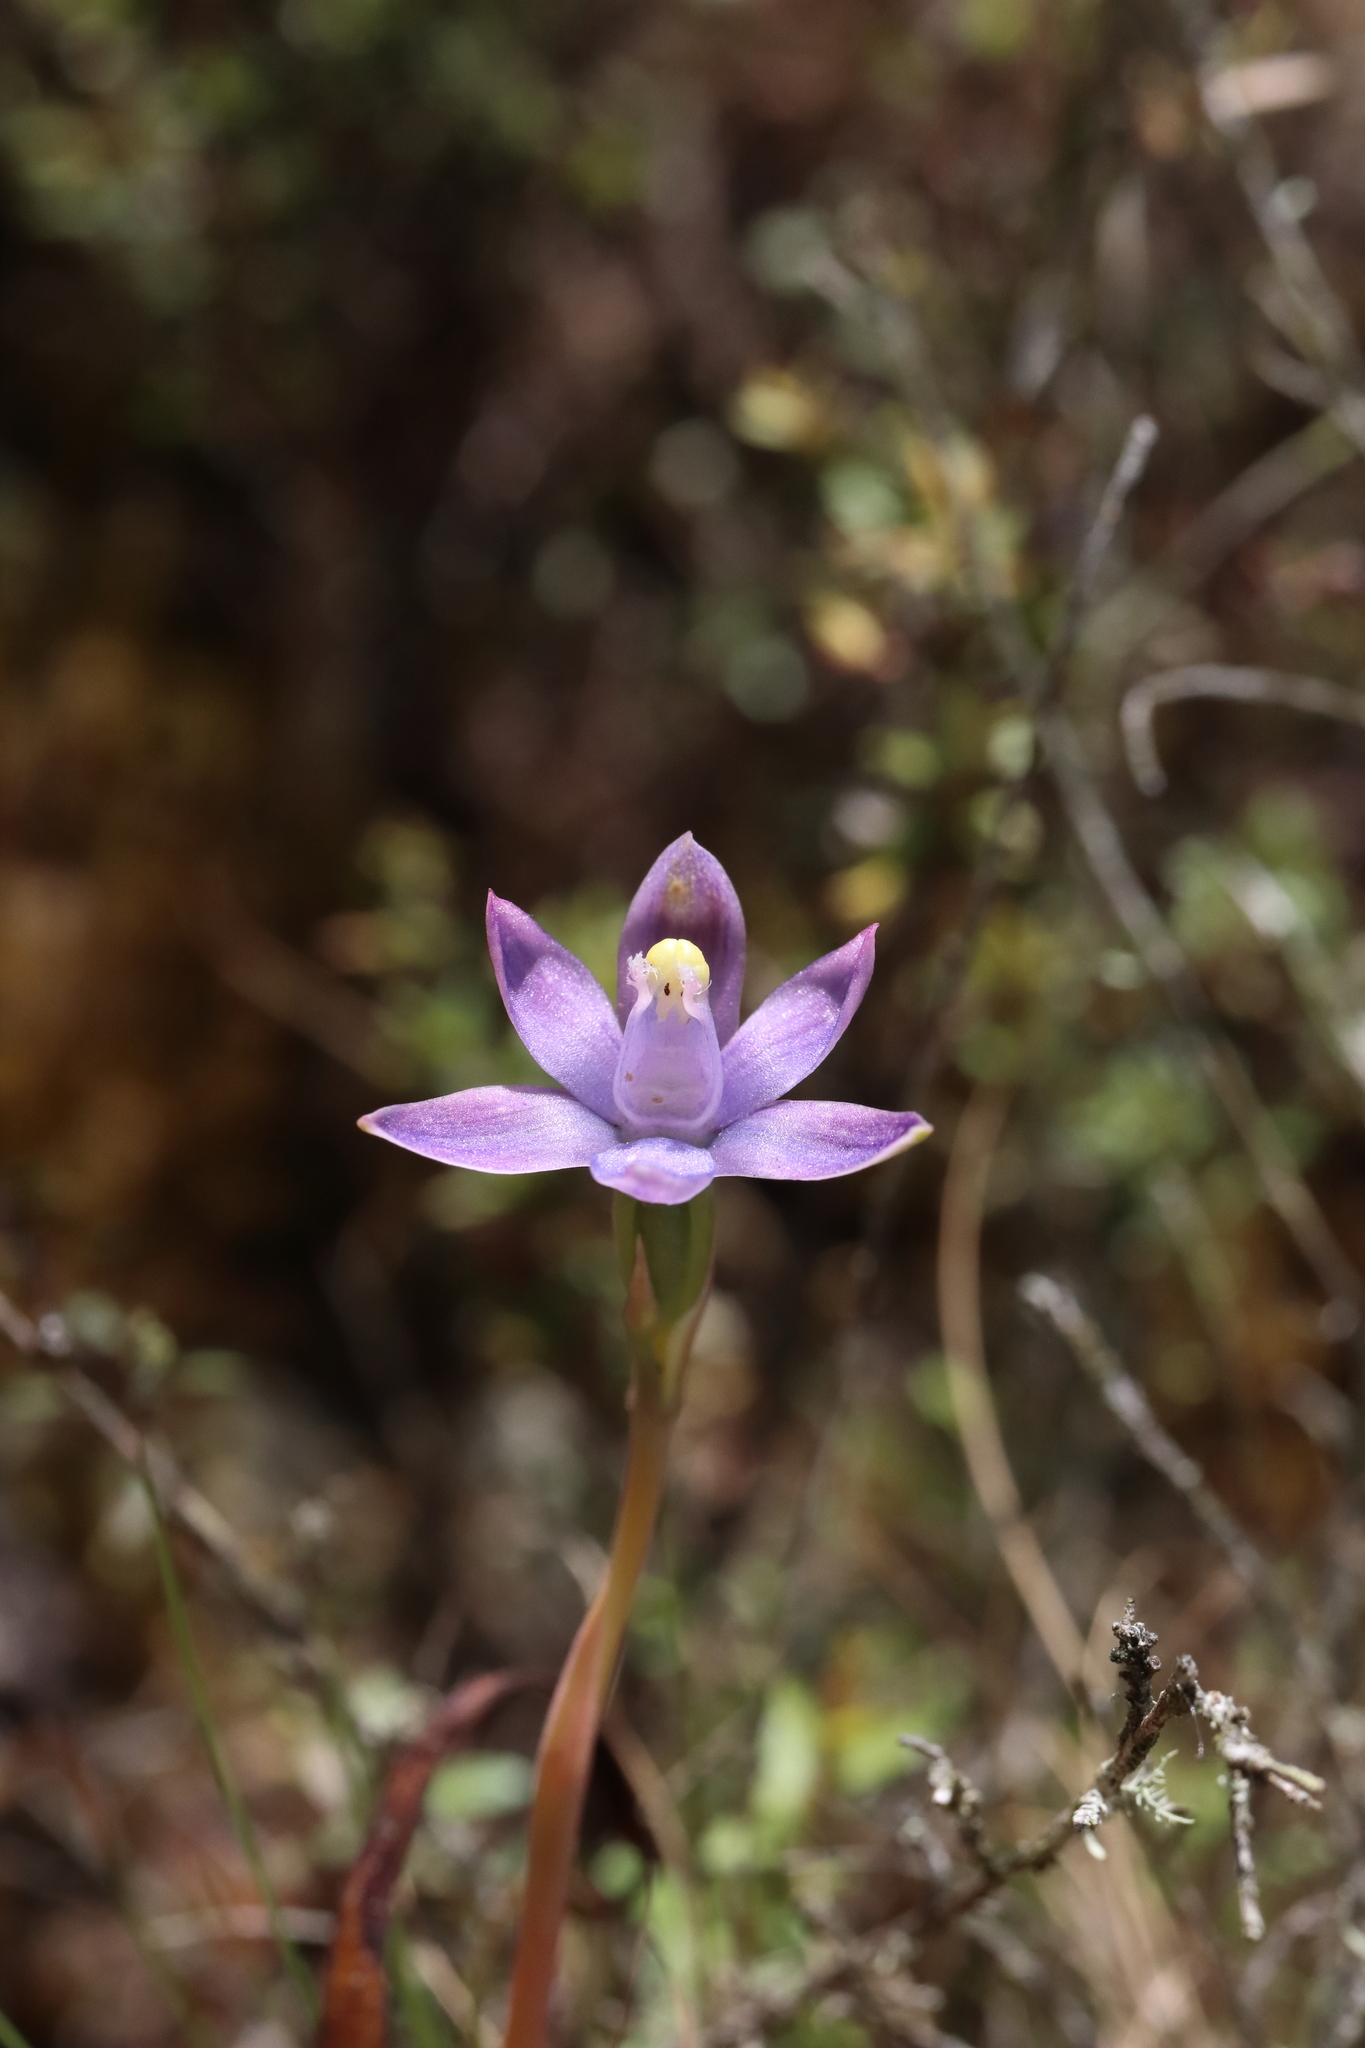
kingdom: Plantae
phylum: Tracheophyta
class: Liliopsida
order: Asparagales
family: Orchidaceae
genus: Thelymitra
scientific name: Thelymitra pauciflora
